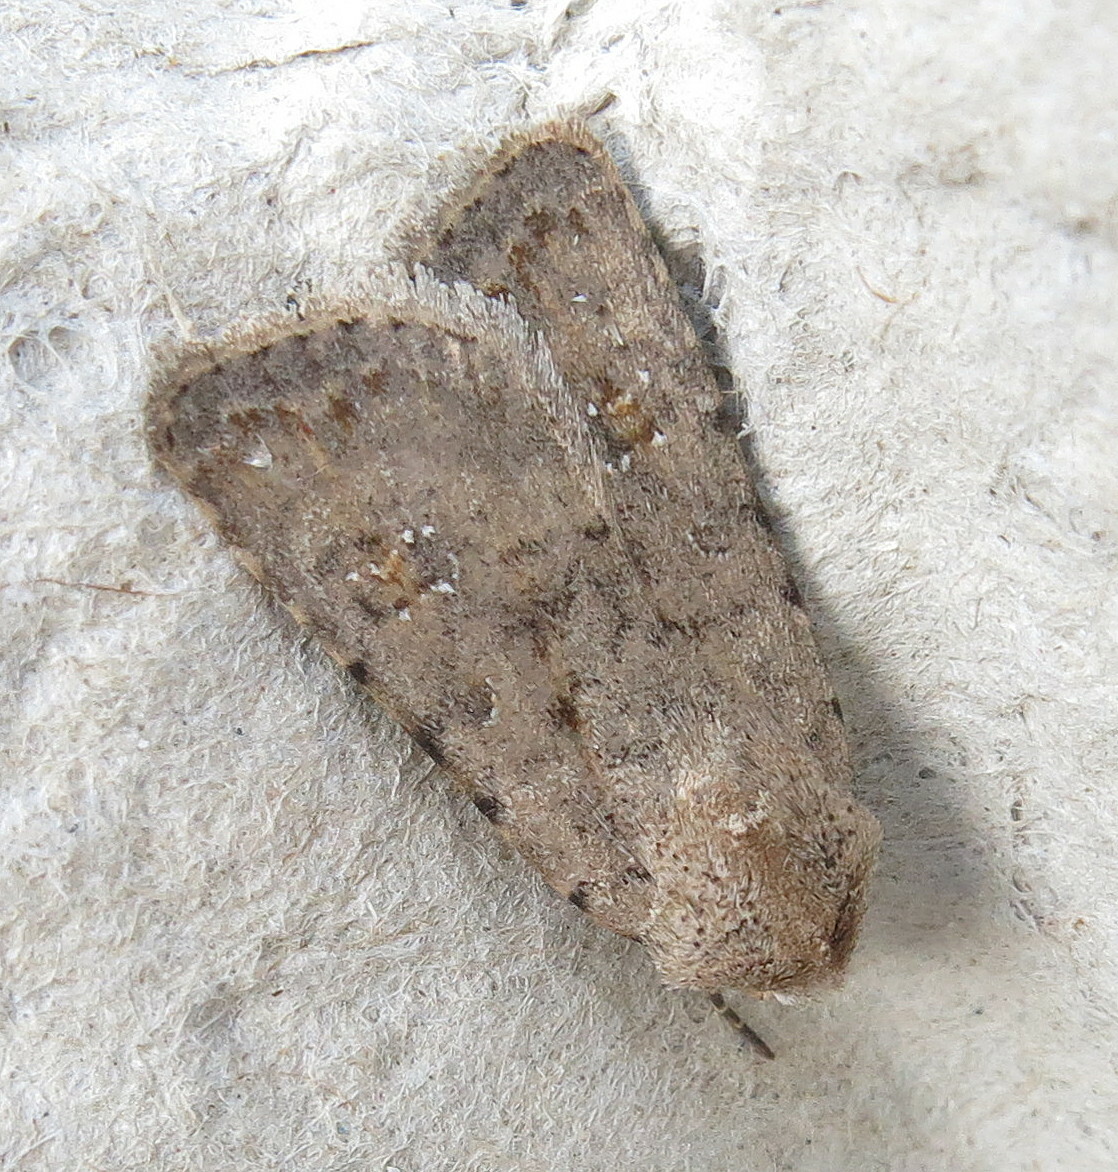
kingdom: Animalia
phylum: Arthropoda
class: Insecta
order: Lepidoptera
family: Noctuidae
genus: Caradrina
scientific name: Caradrina clavipalpis
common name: Pale mottled willow
